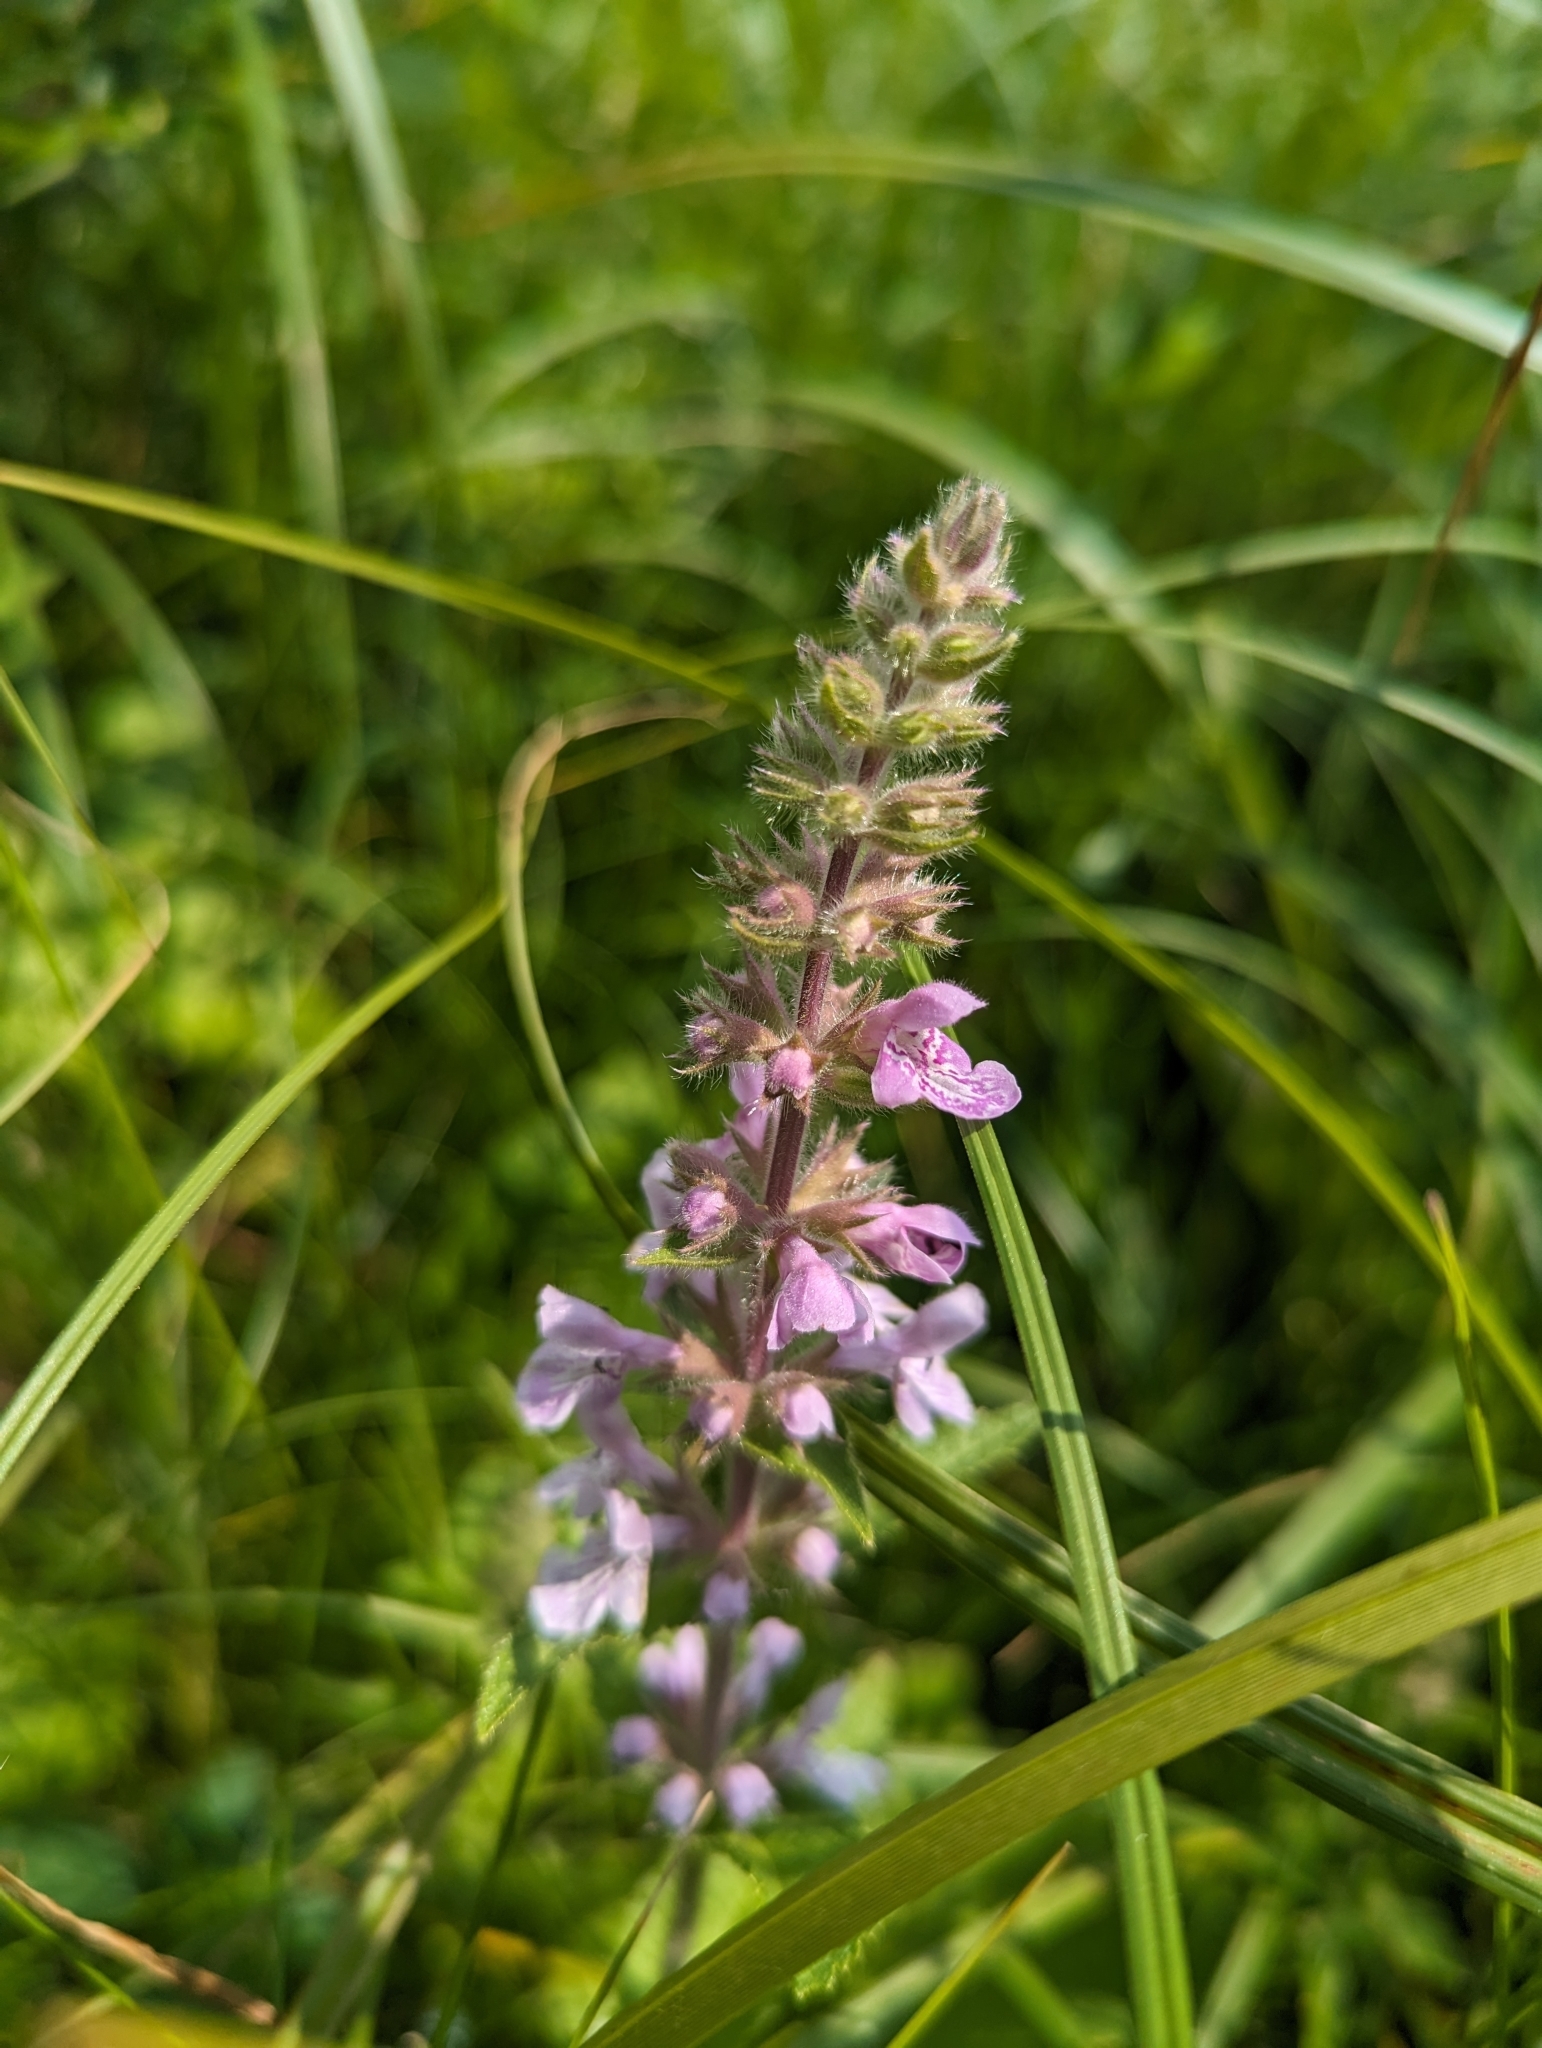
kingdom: Plantae
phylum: Tracheophyta
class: Magnoliopsida
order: Lamiales
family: Lamiaceae
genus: Stachys
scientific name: Stachys pilosa
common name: Hairy hedge-nettle
